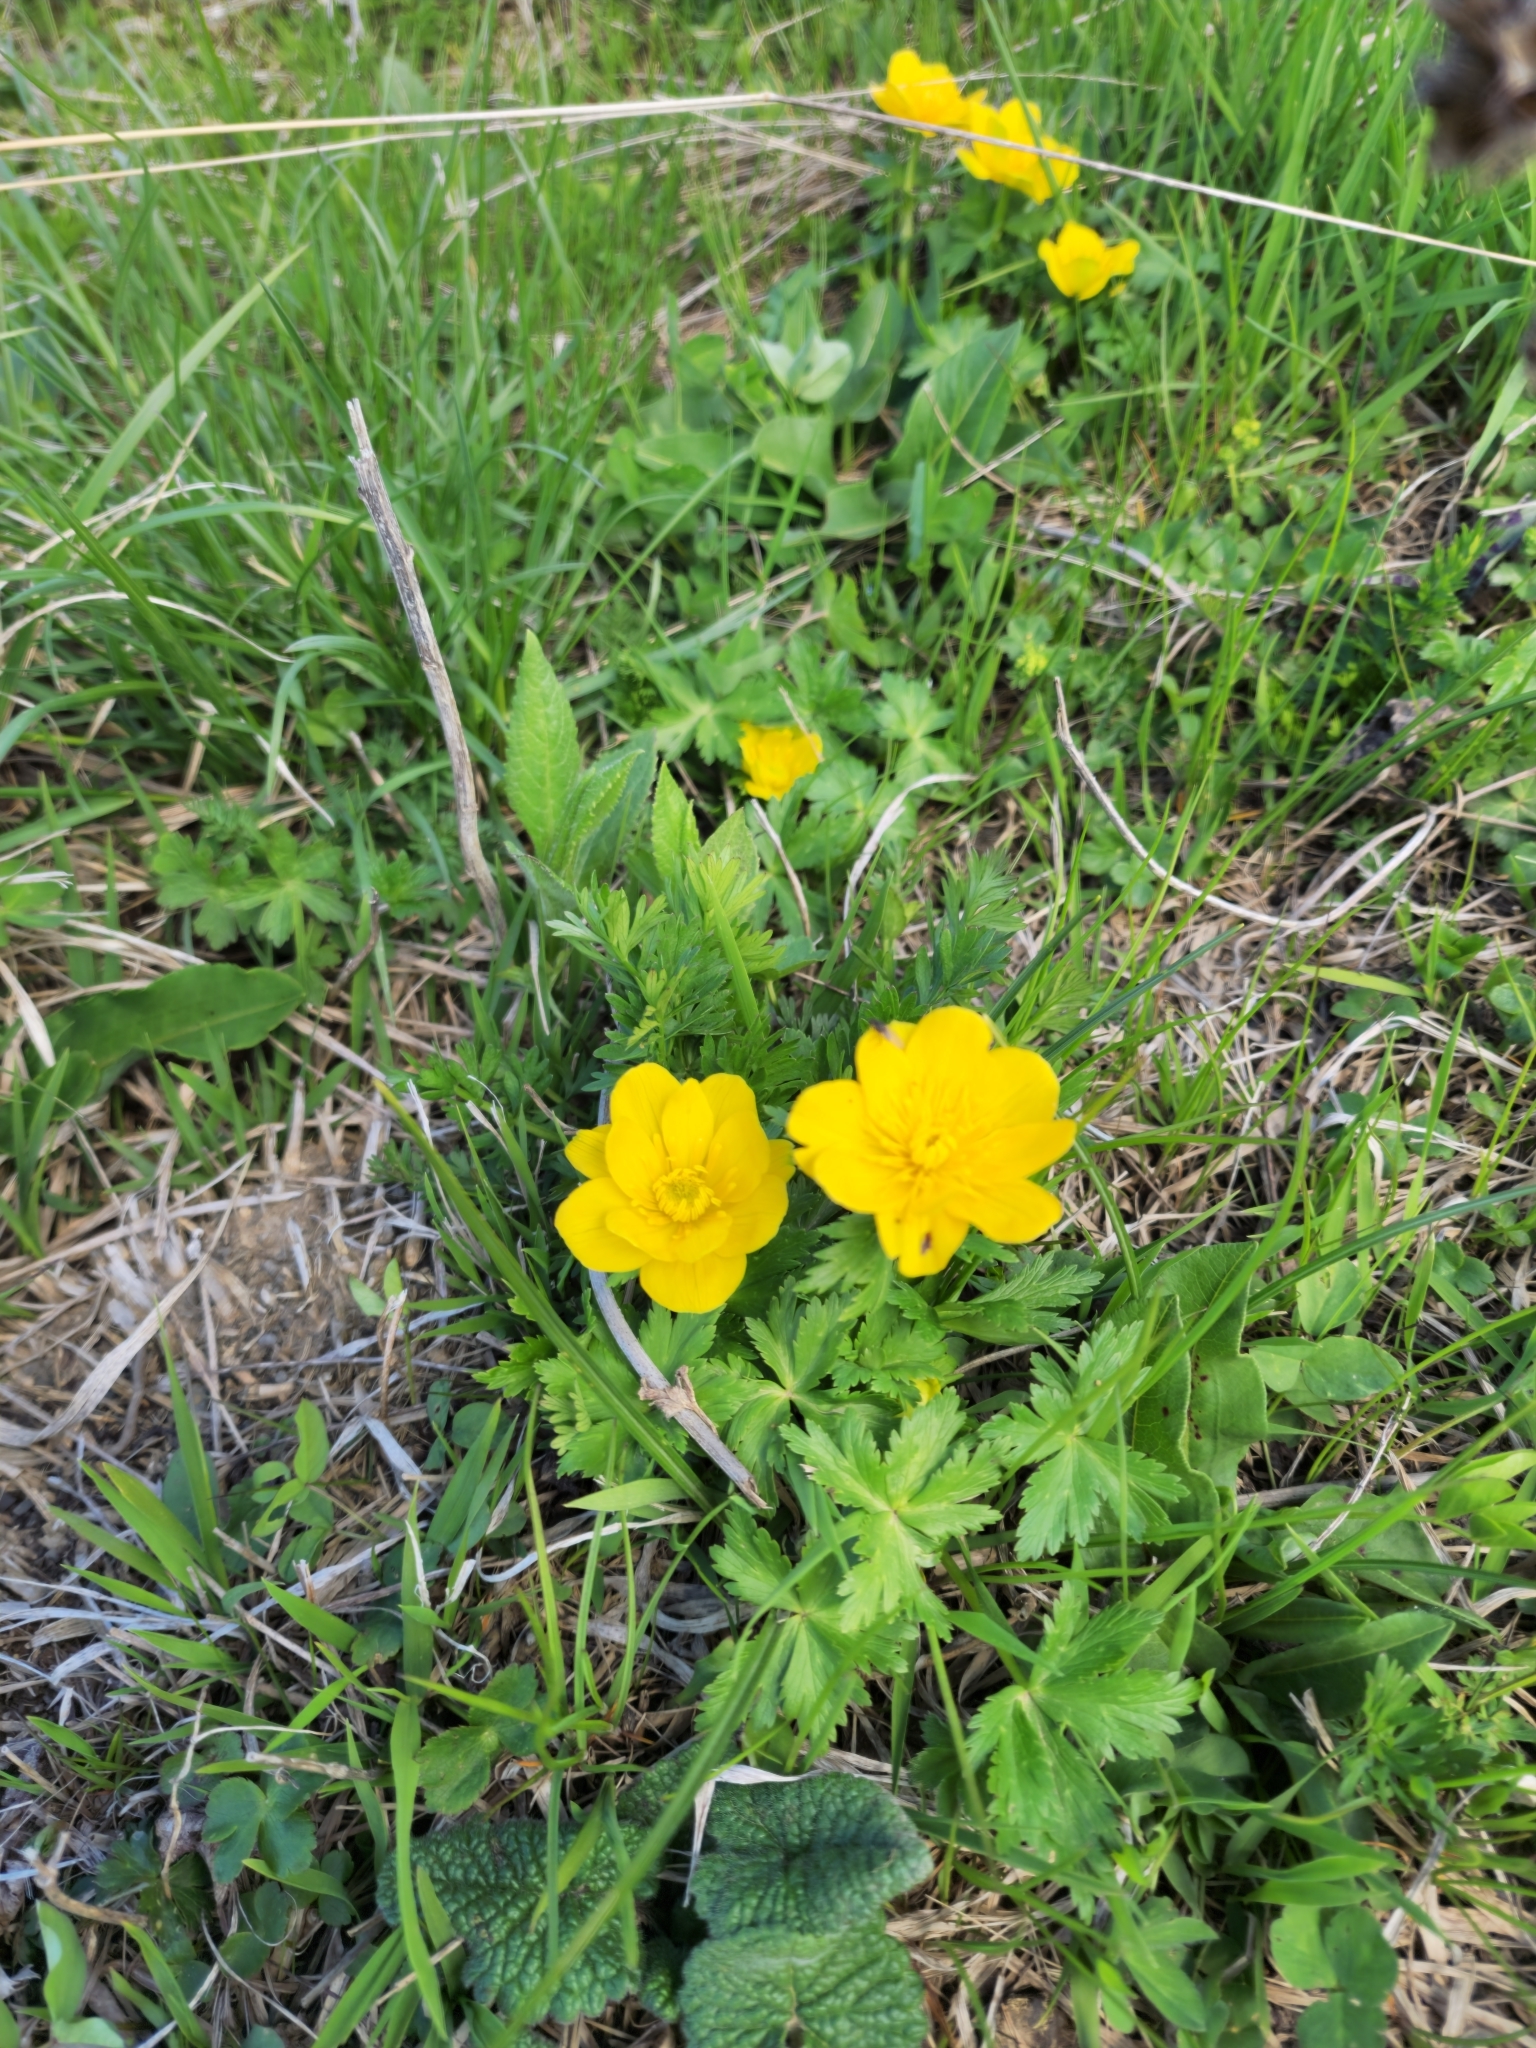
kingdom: Plantae
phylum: Tracheophyta
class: Magnoliopsida
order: Ranunculales
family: Ranunculaceae
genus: Trollius
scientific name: Trollius ranunculinus
